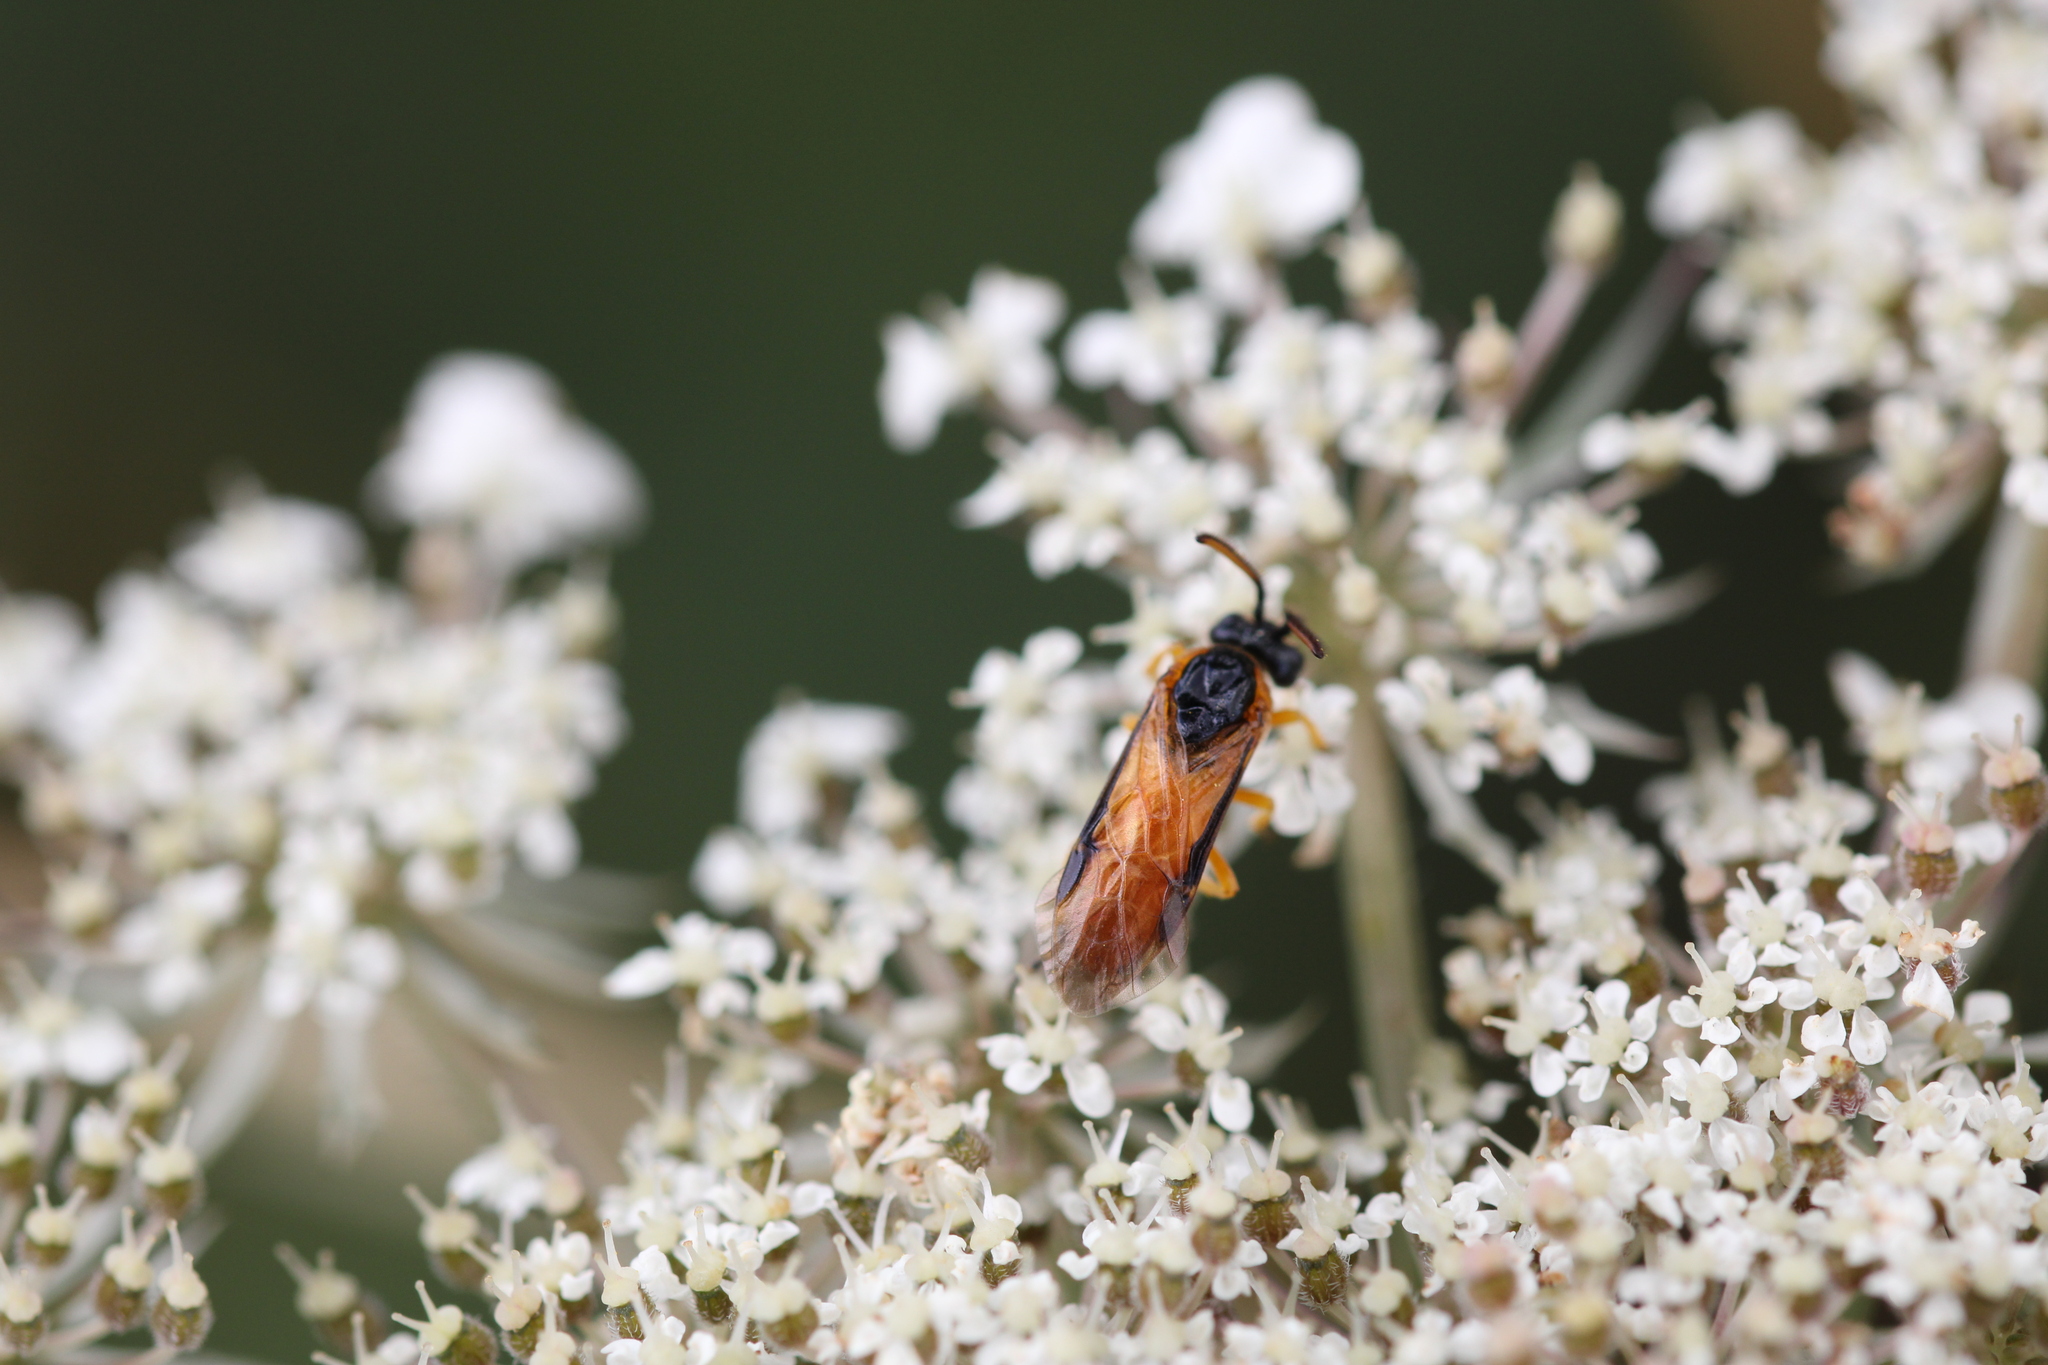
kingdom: Animalia
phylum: Arthropoda
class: Insecta
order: Hymenoptera
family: Argidae
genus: Arge
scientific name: Arge ochropus
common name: Argid sawfly
